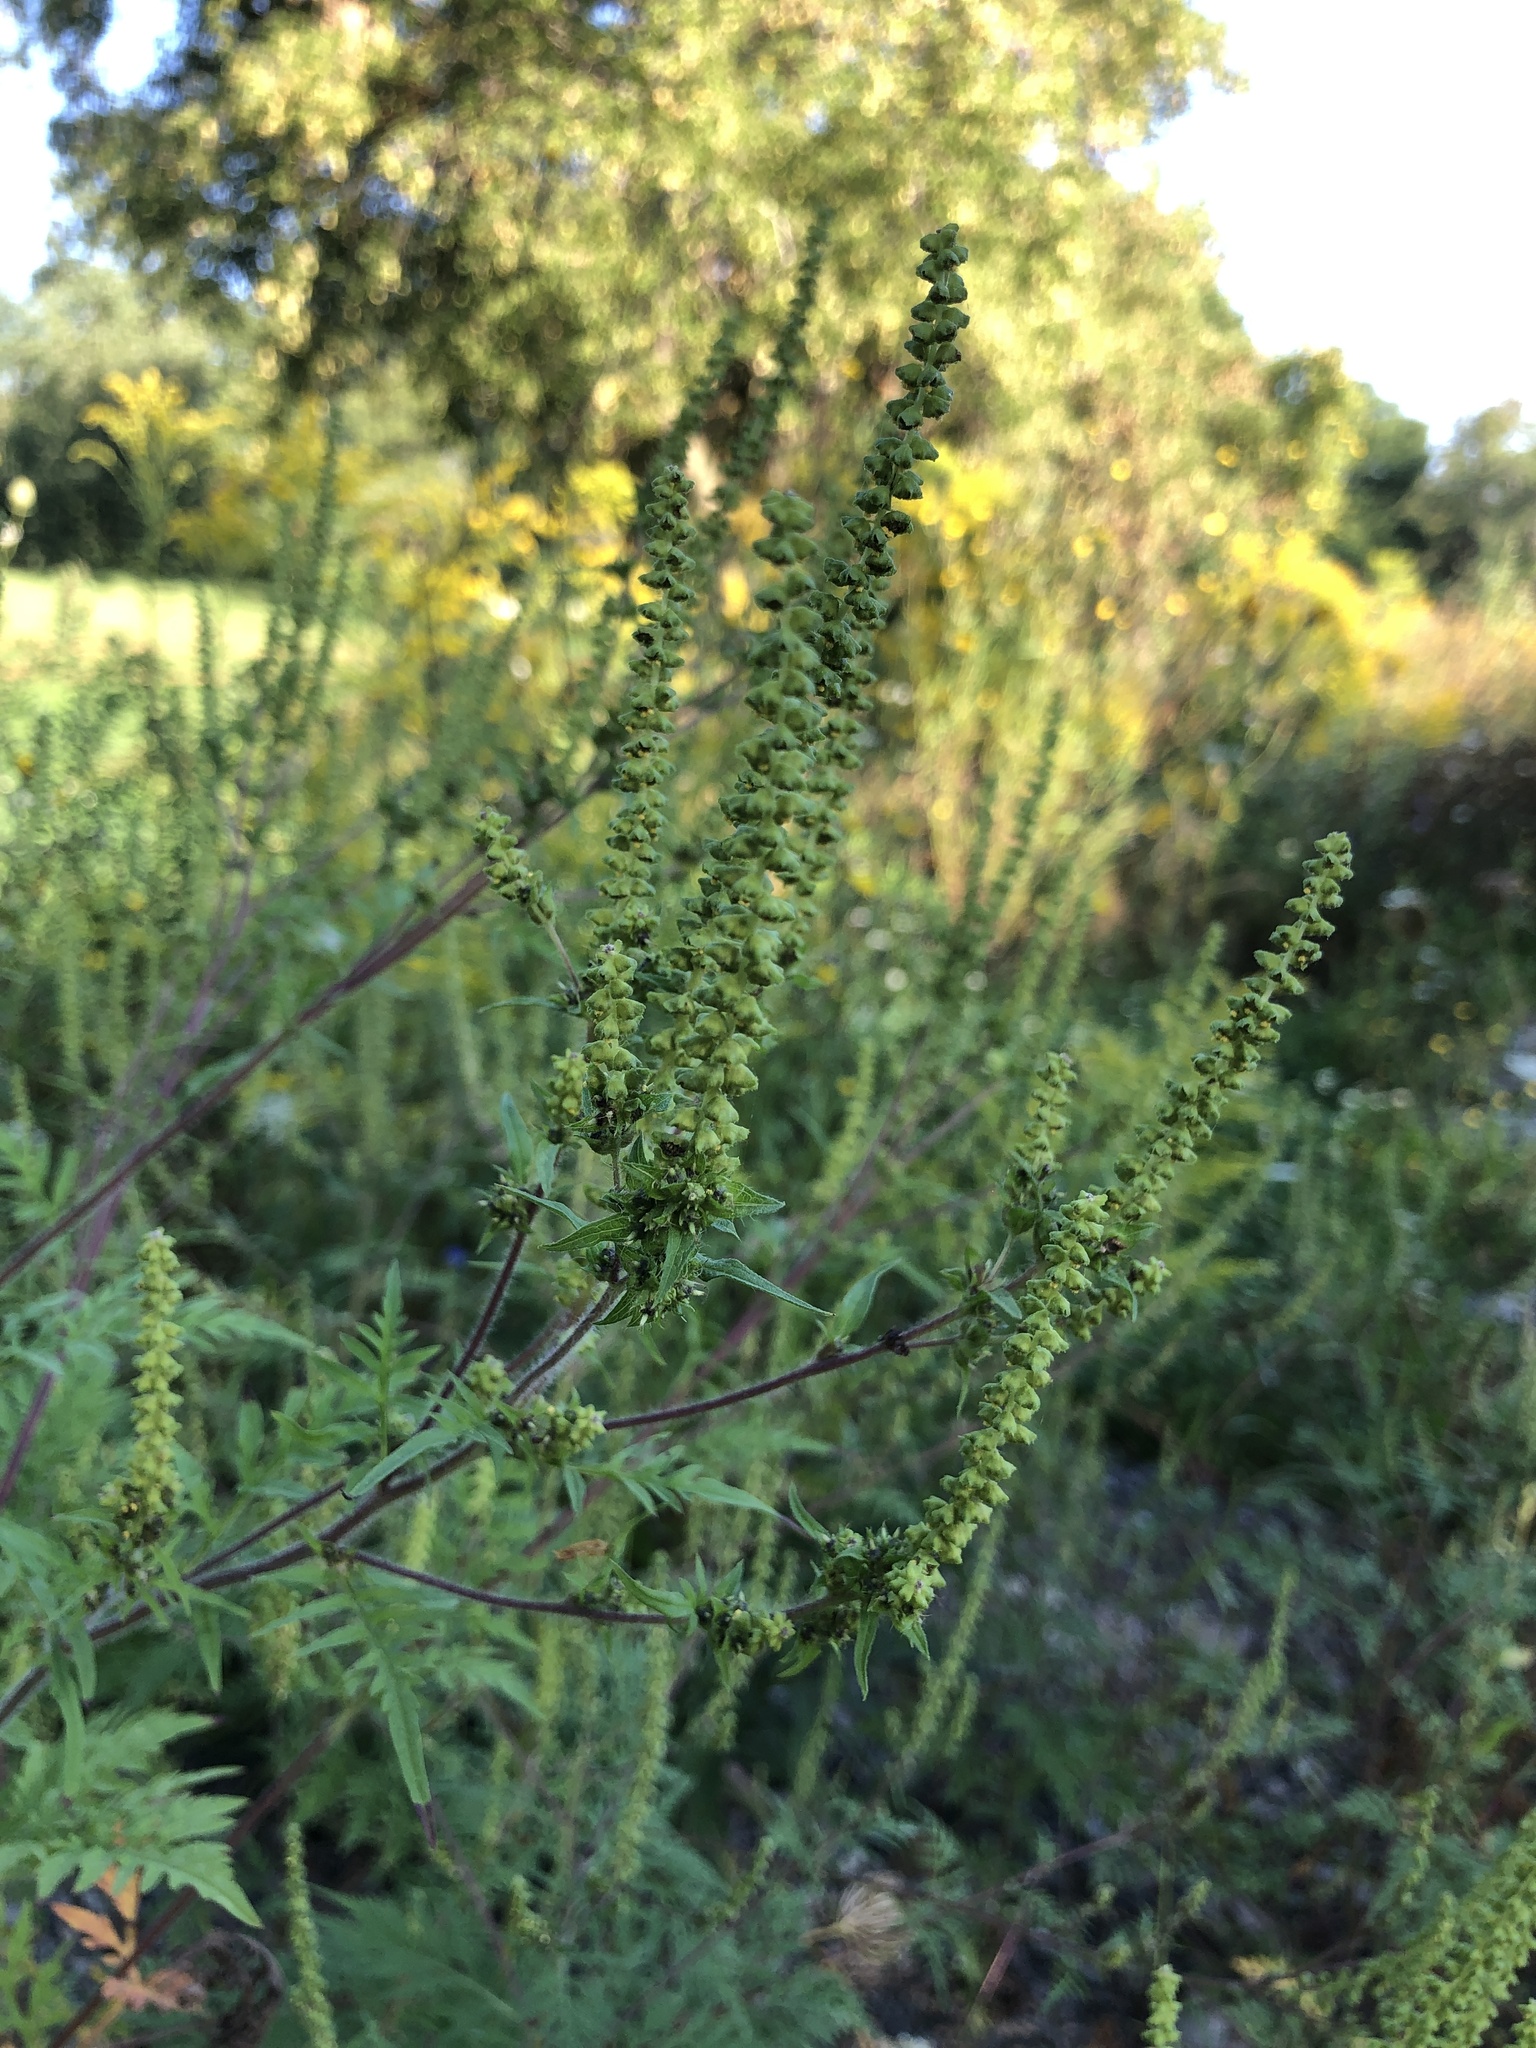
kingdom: Plantae
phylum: Tracheophyta
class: Magnoliopsida
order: Asterales
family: Asteraceae
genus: Ambrosia
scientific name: Ambrosia artemisiifolia
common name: Annual ragweed
